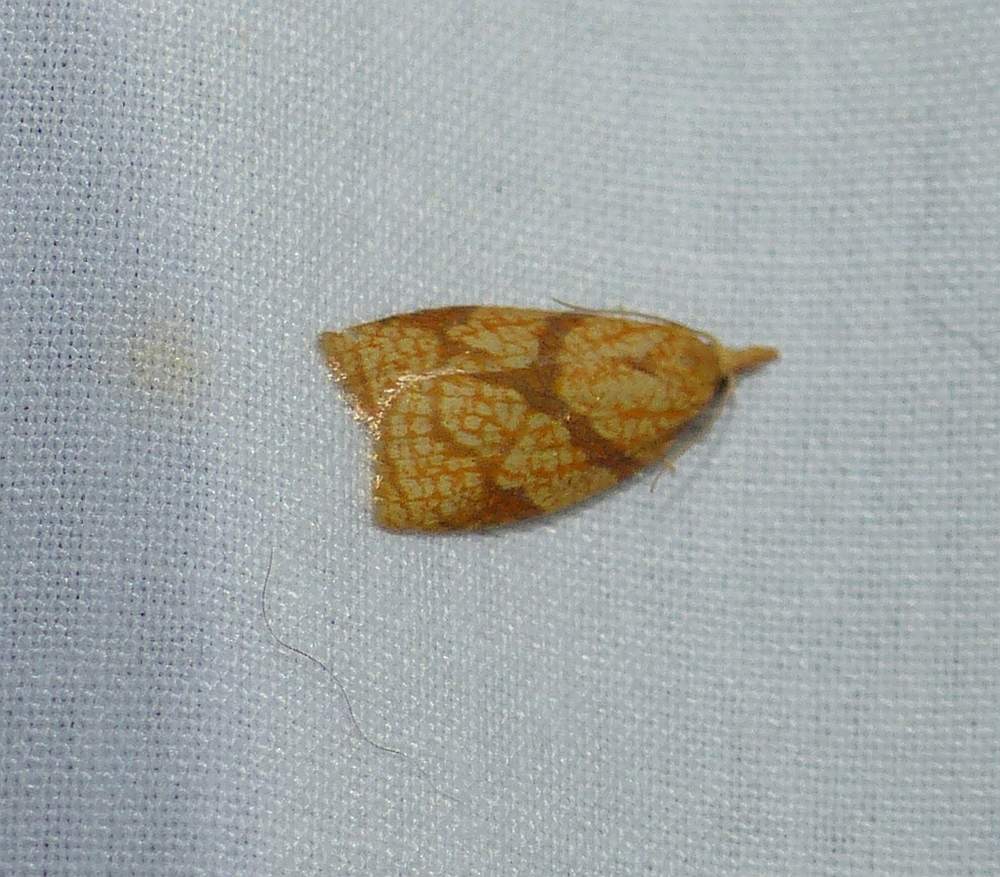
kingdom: Animalia
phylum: Arthropoda
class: Insecta
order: Lepidoptera
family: Tortricidae
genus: Cenopis
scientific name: Cenopis reticulatana
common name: Reticulated fruitworm moth
